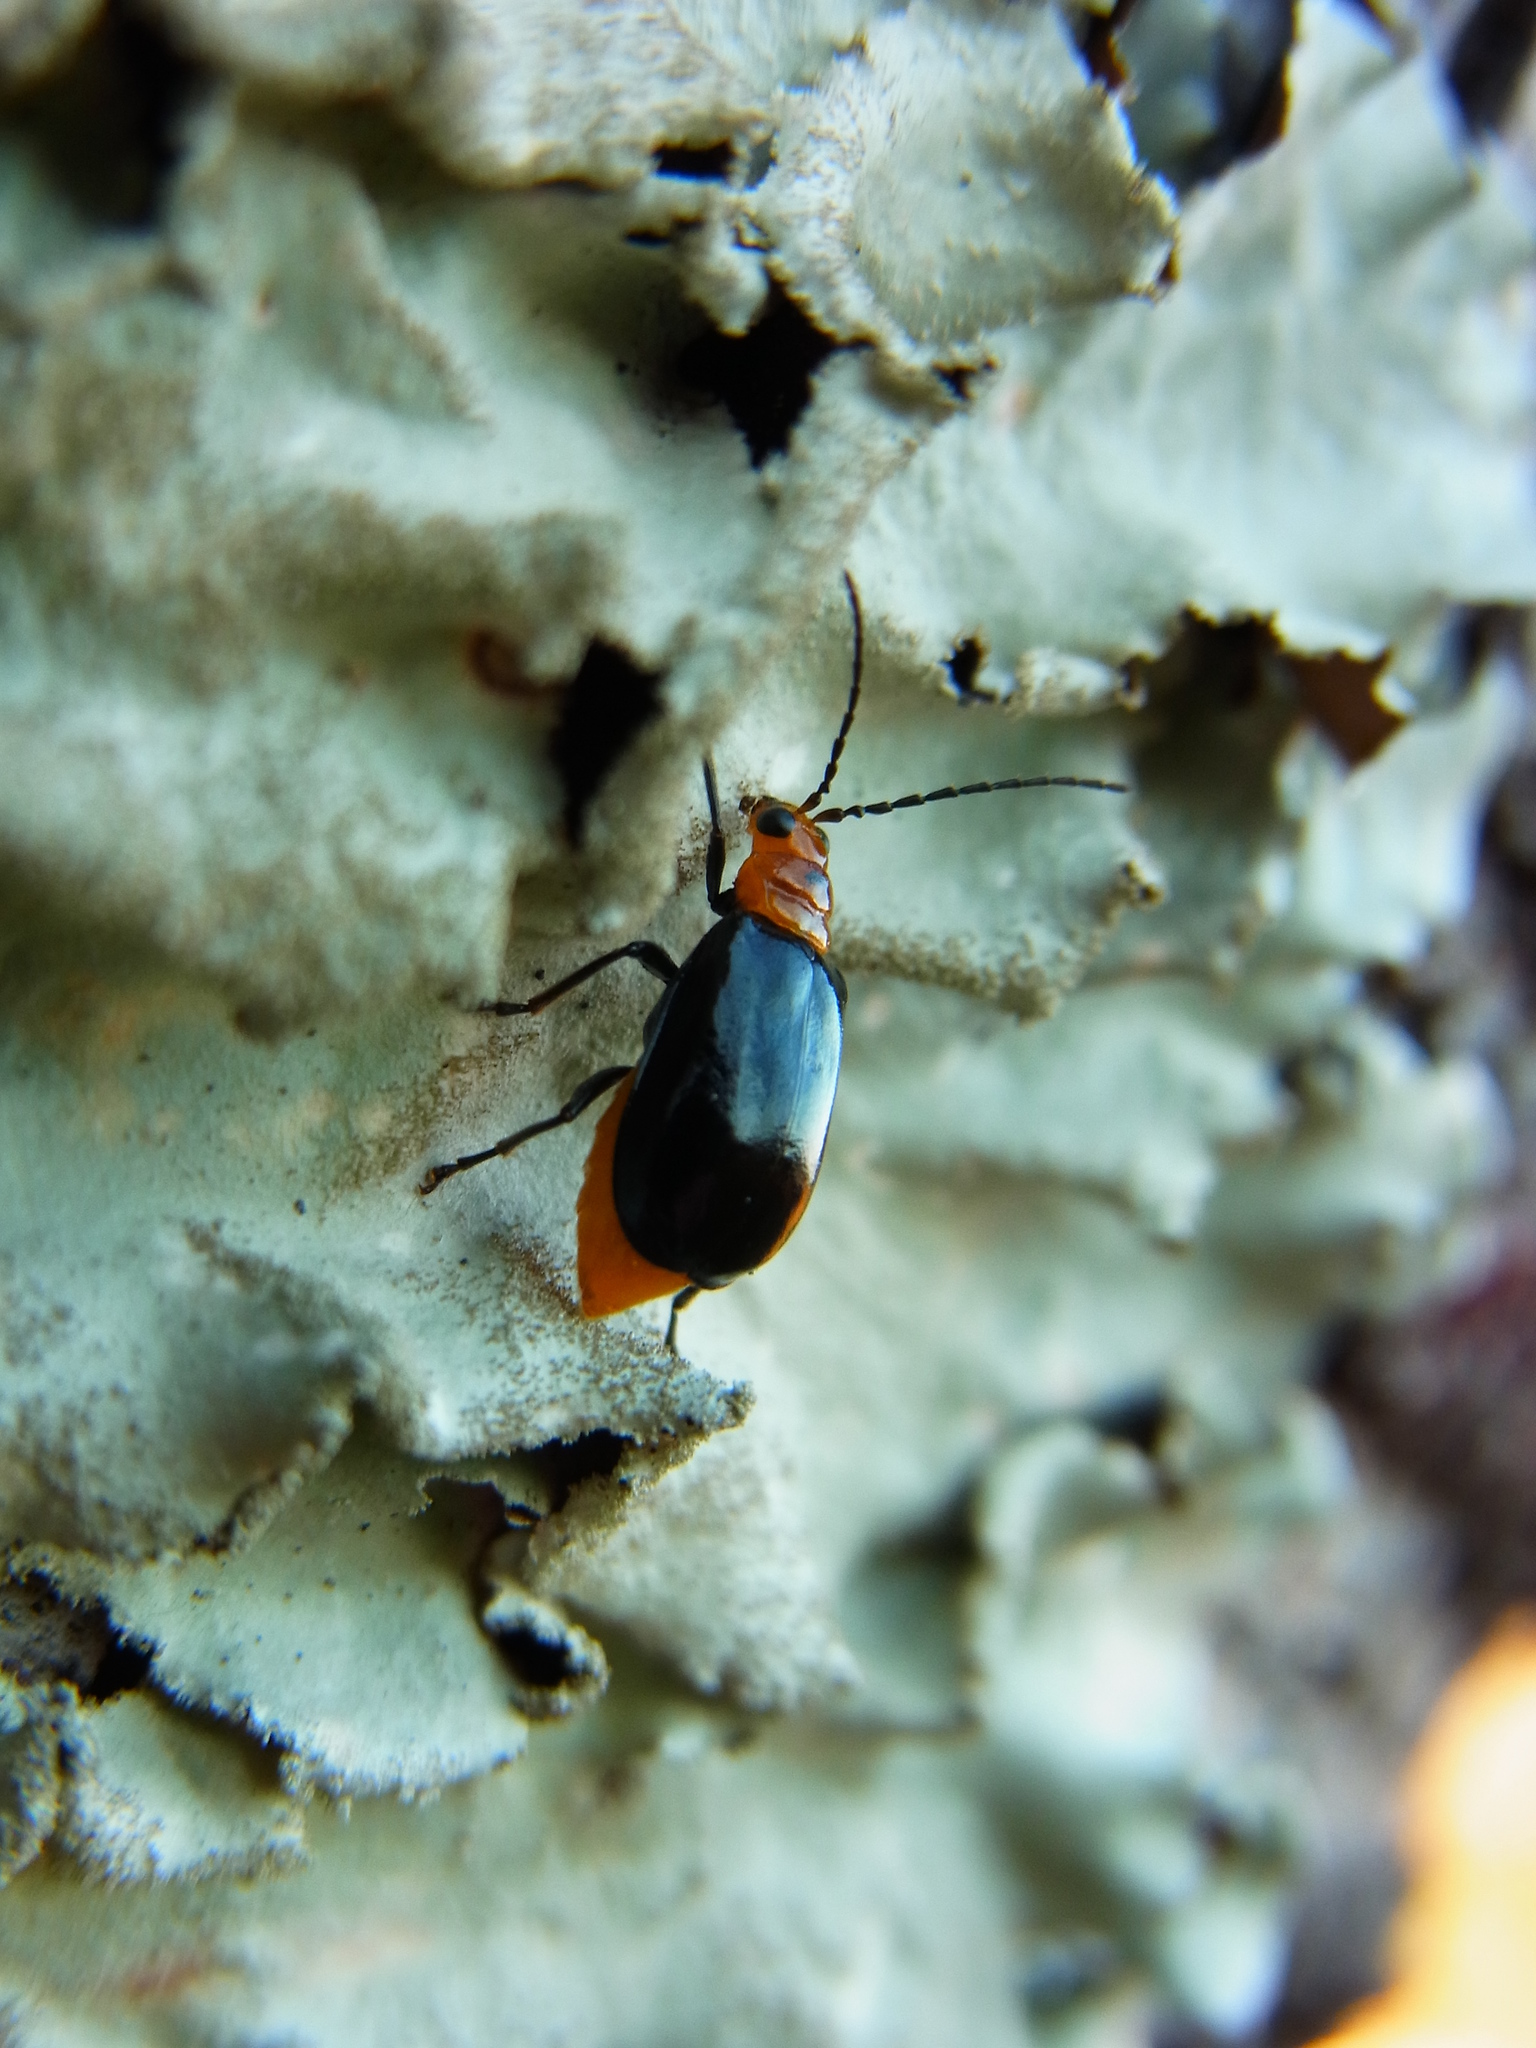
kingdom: Animalia
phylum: Arthropoda
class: Insecta
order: Coleoptera
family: Chrysomelidae
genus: Aulacophora
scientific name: Aulacophora nigripennis
